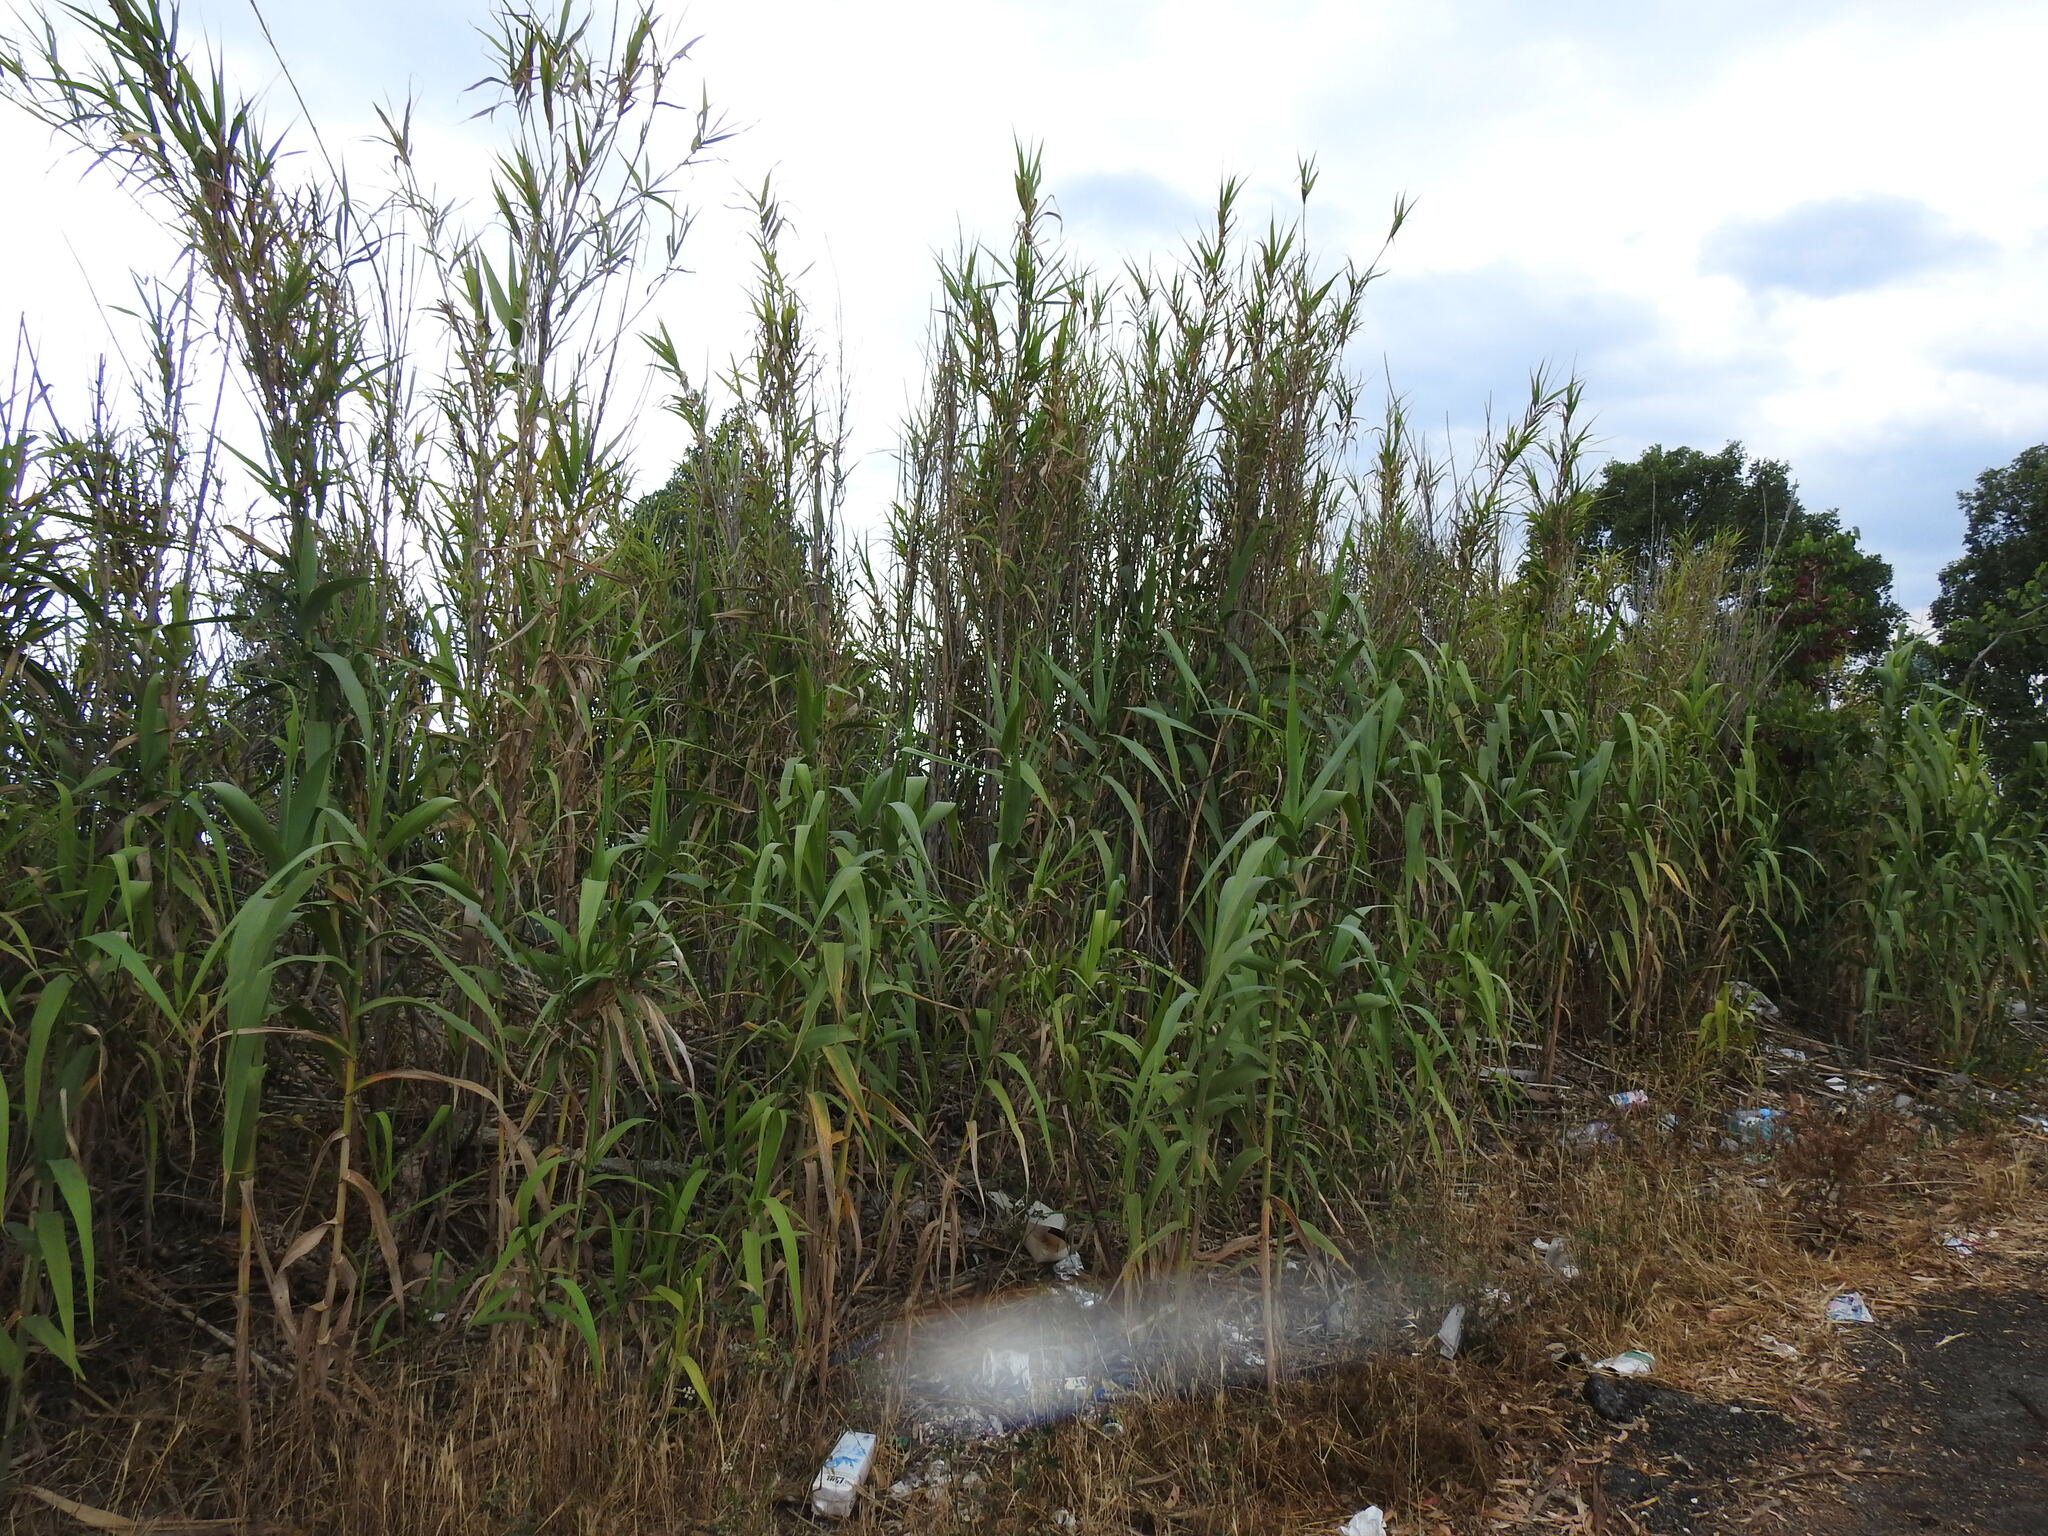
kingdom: Plantae
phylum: Tracheophyta
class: Liliopsida
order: Poales
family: Poaceae
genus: Arundo
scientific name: Arundo donax
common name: Giant reed
